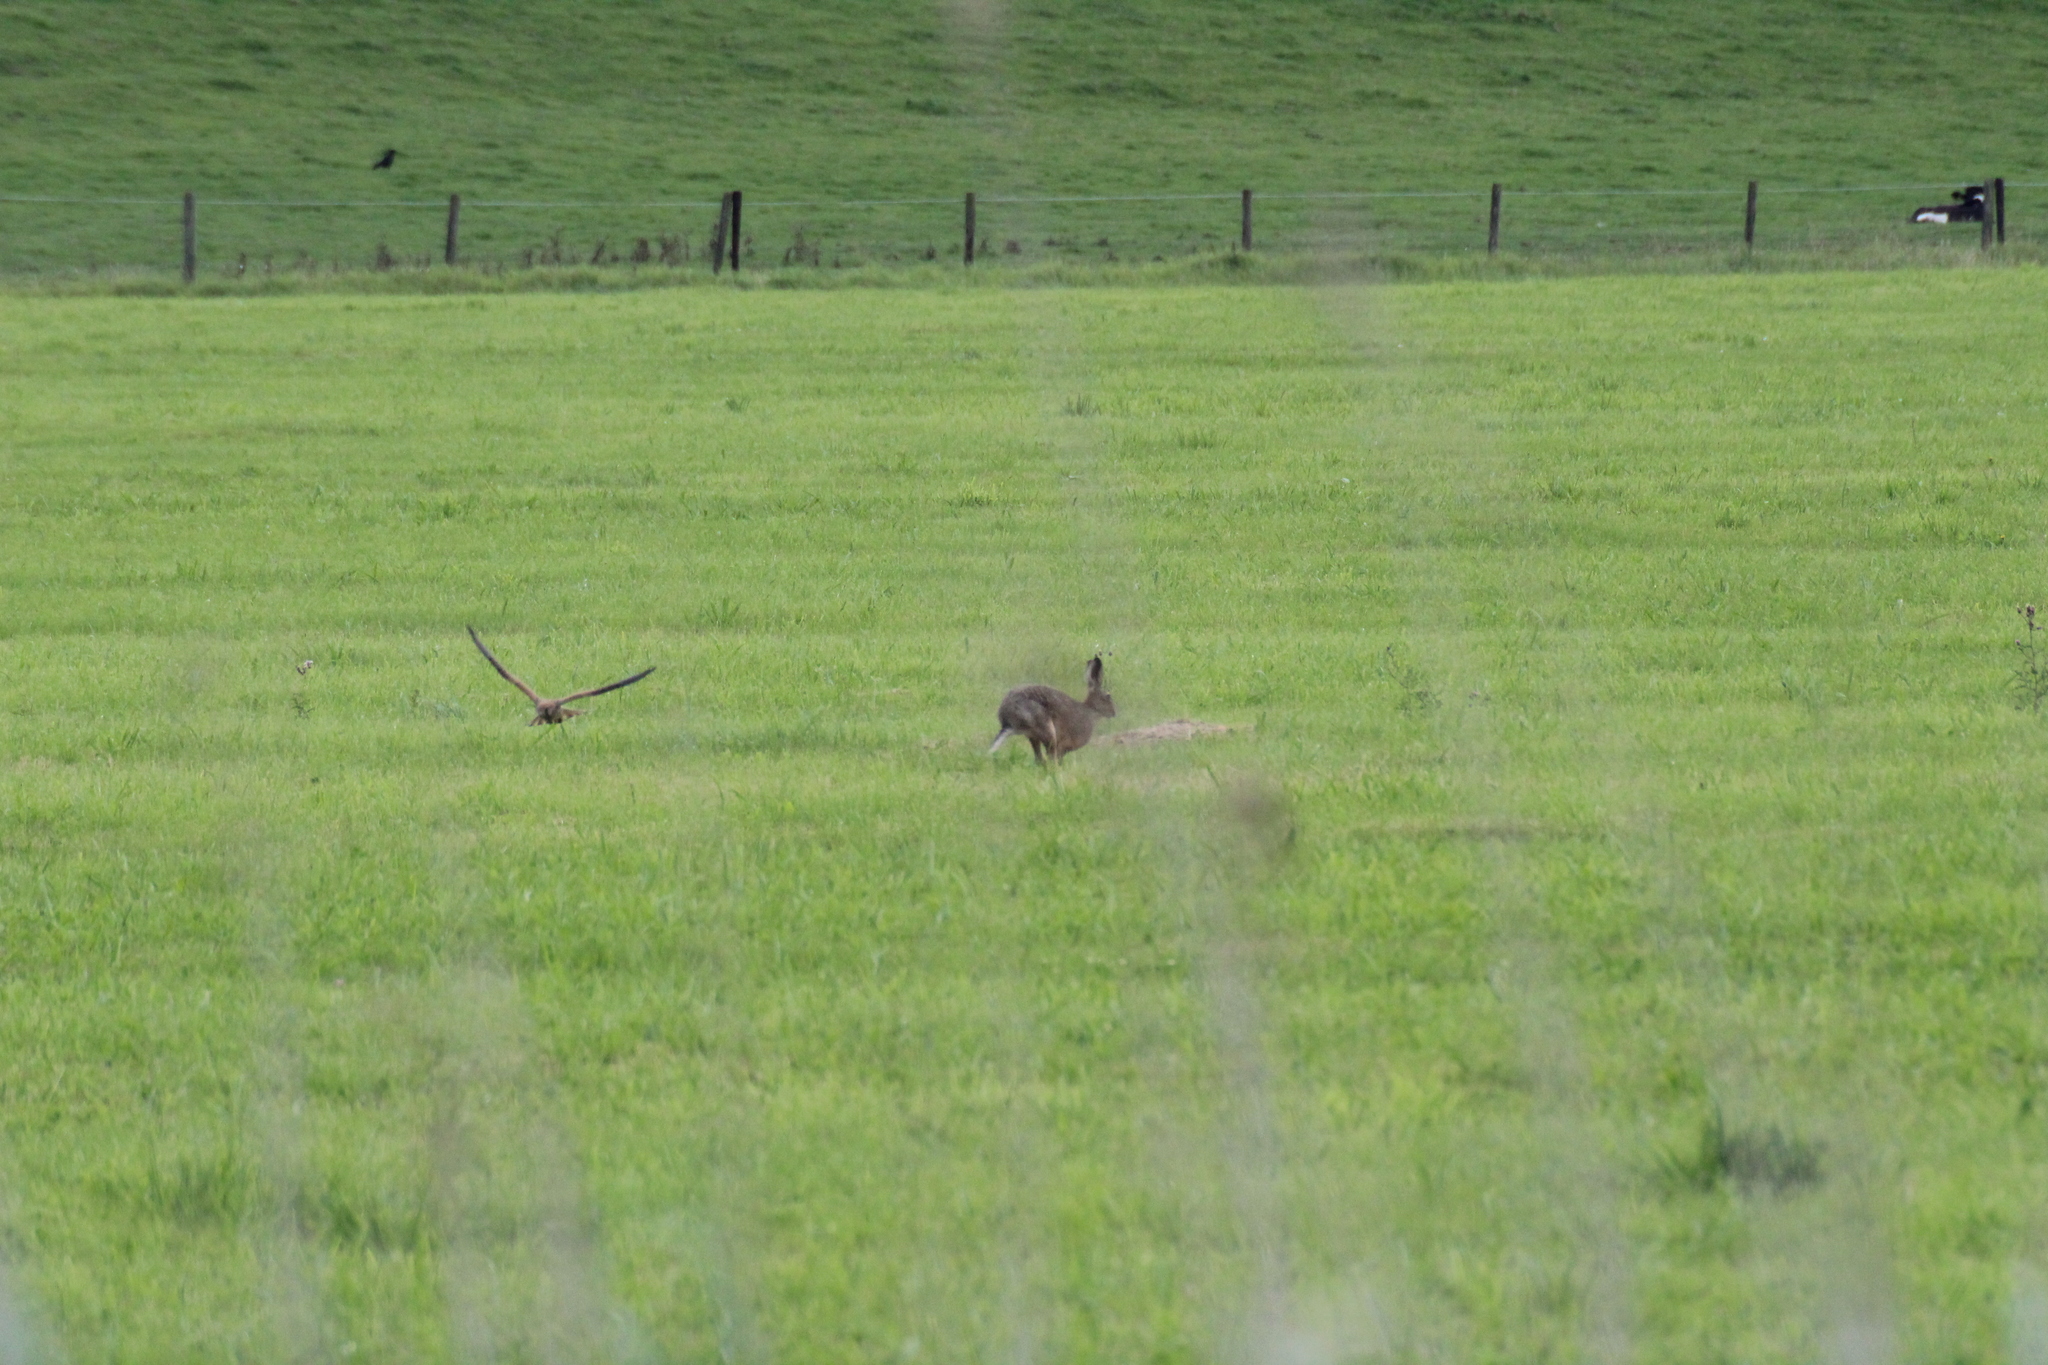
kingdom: Animalia
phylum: Chordata
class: Mammalia
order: Lagomorpha
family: Leporidae
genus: Lepus
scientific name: Lepus europaeus
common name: European hare
